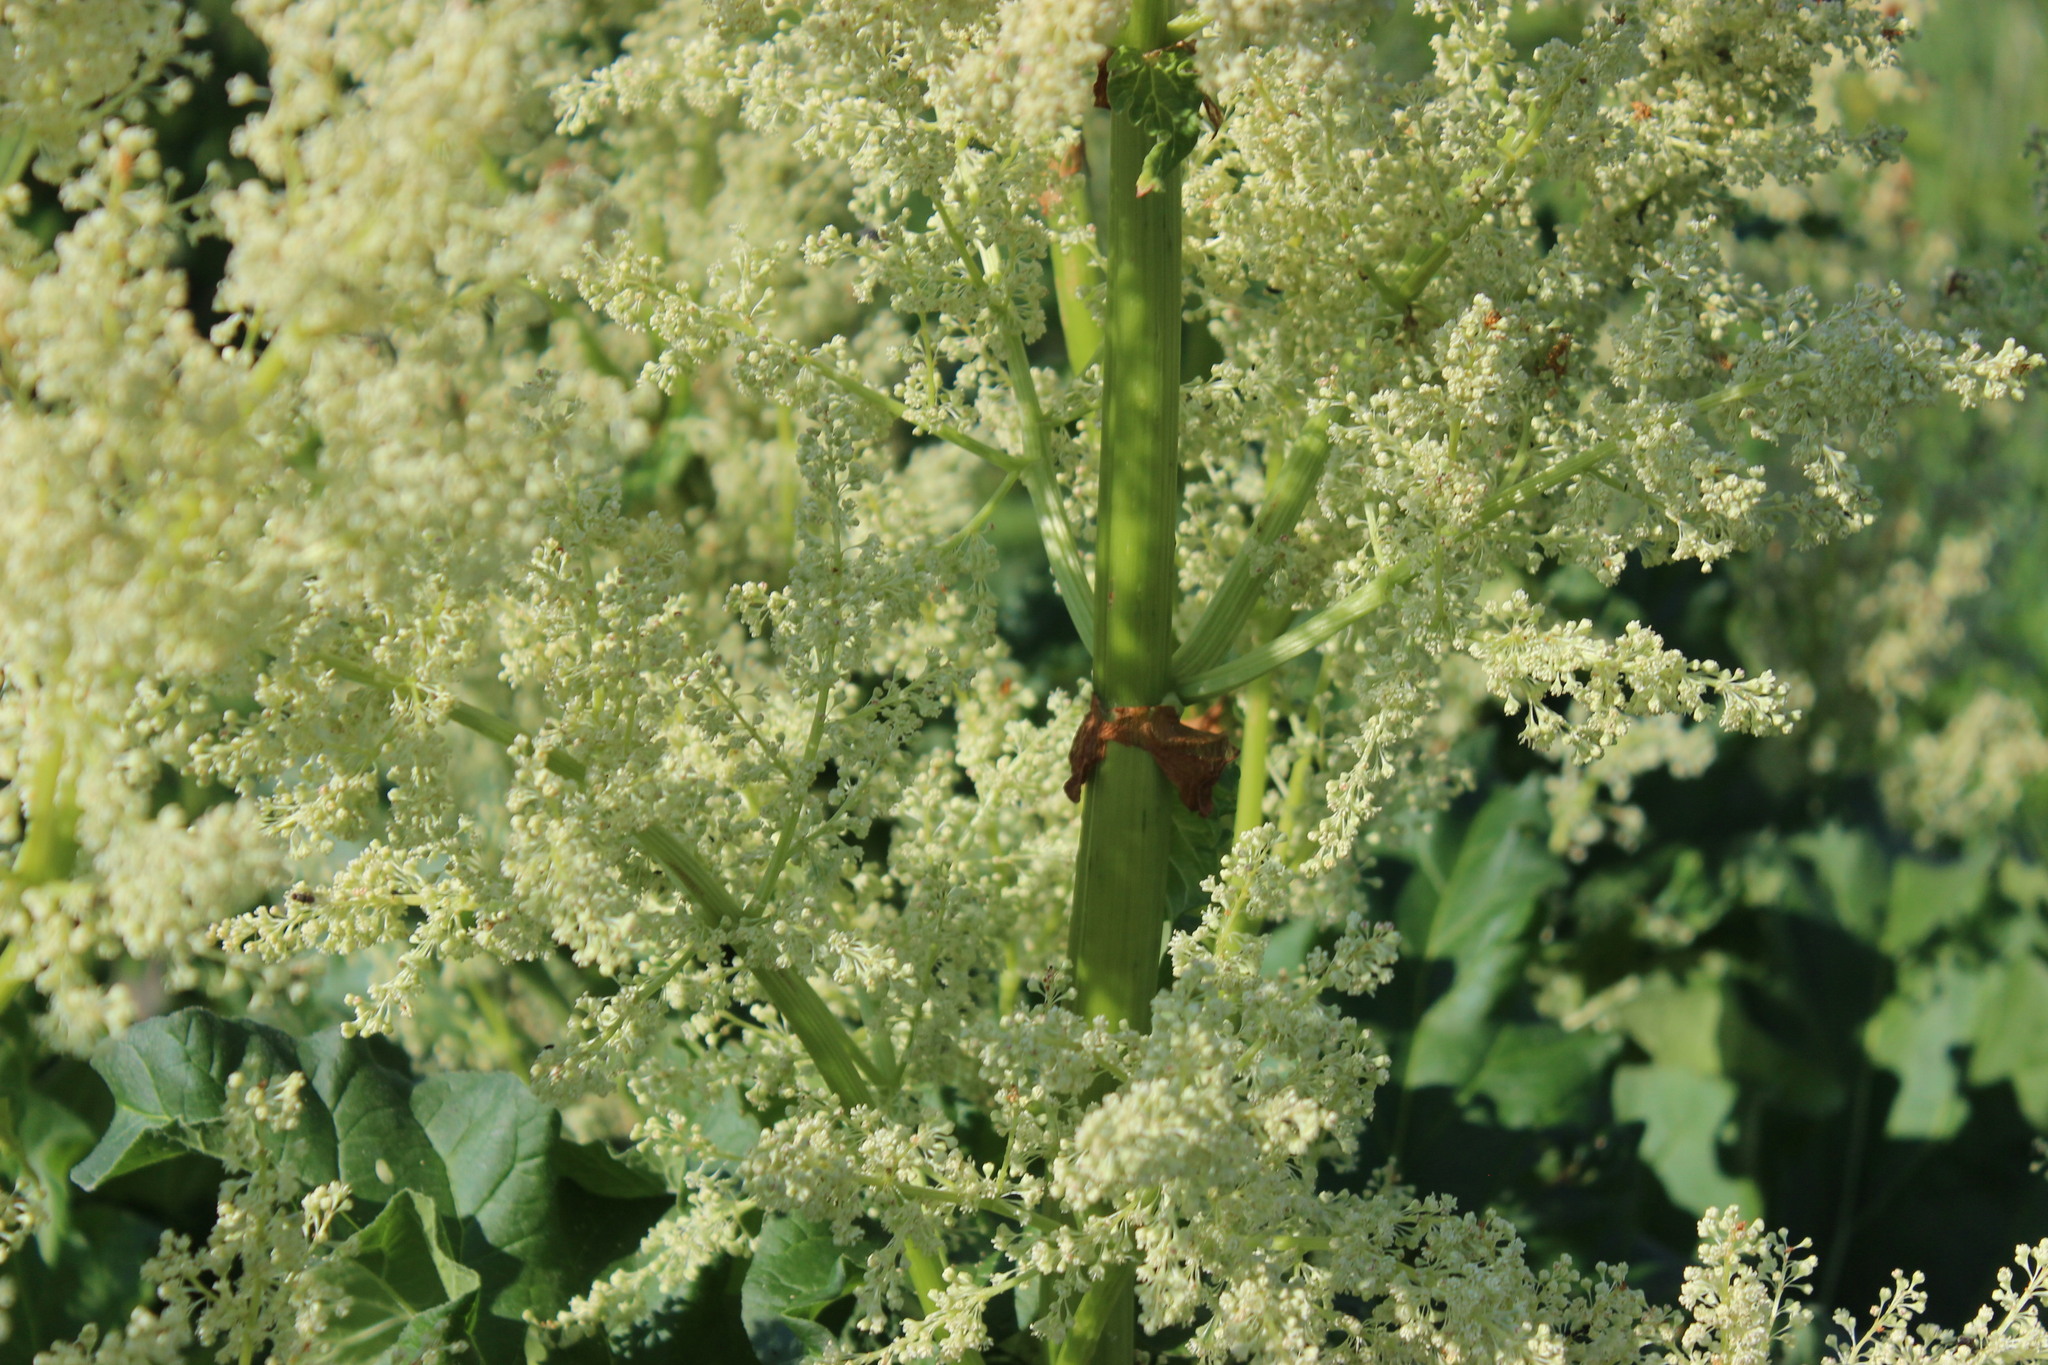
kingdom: Plantae
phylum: Tracheophyta
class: Magnoliopsida
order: Caryophyllales
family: Polygonaceae
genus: Rheum
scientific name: Rheum rhabarbarum
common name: Garden rhubarb
